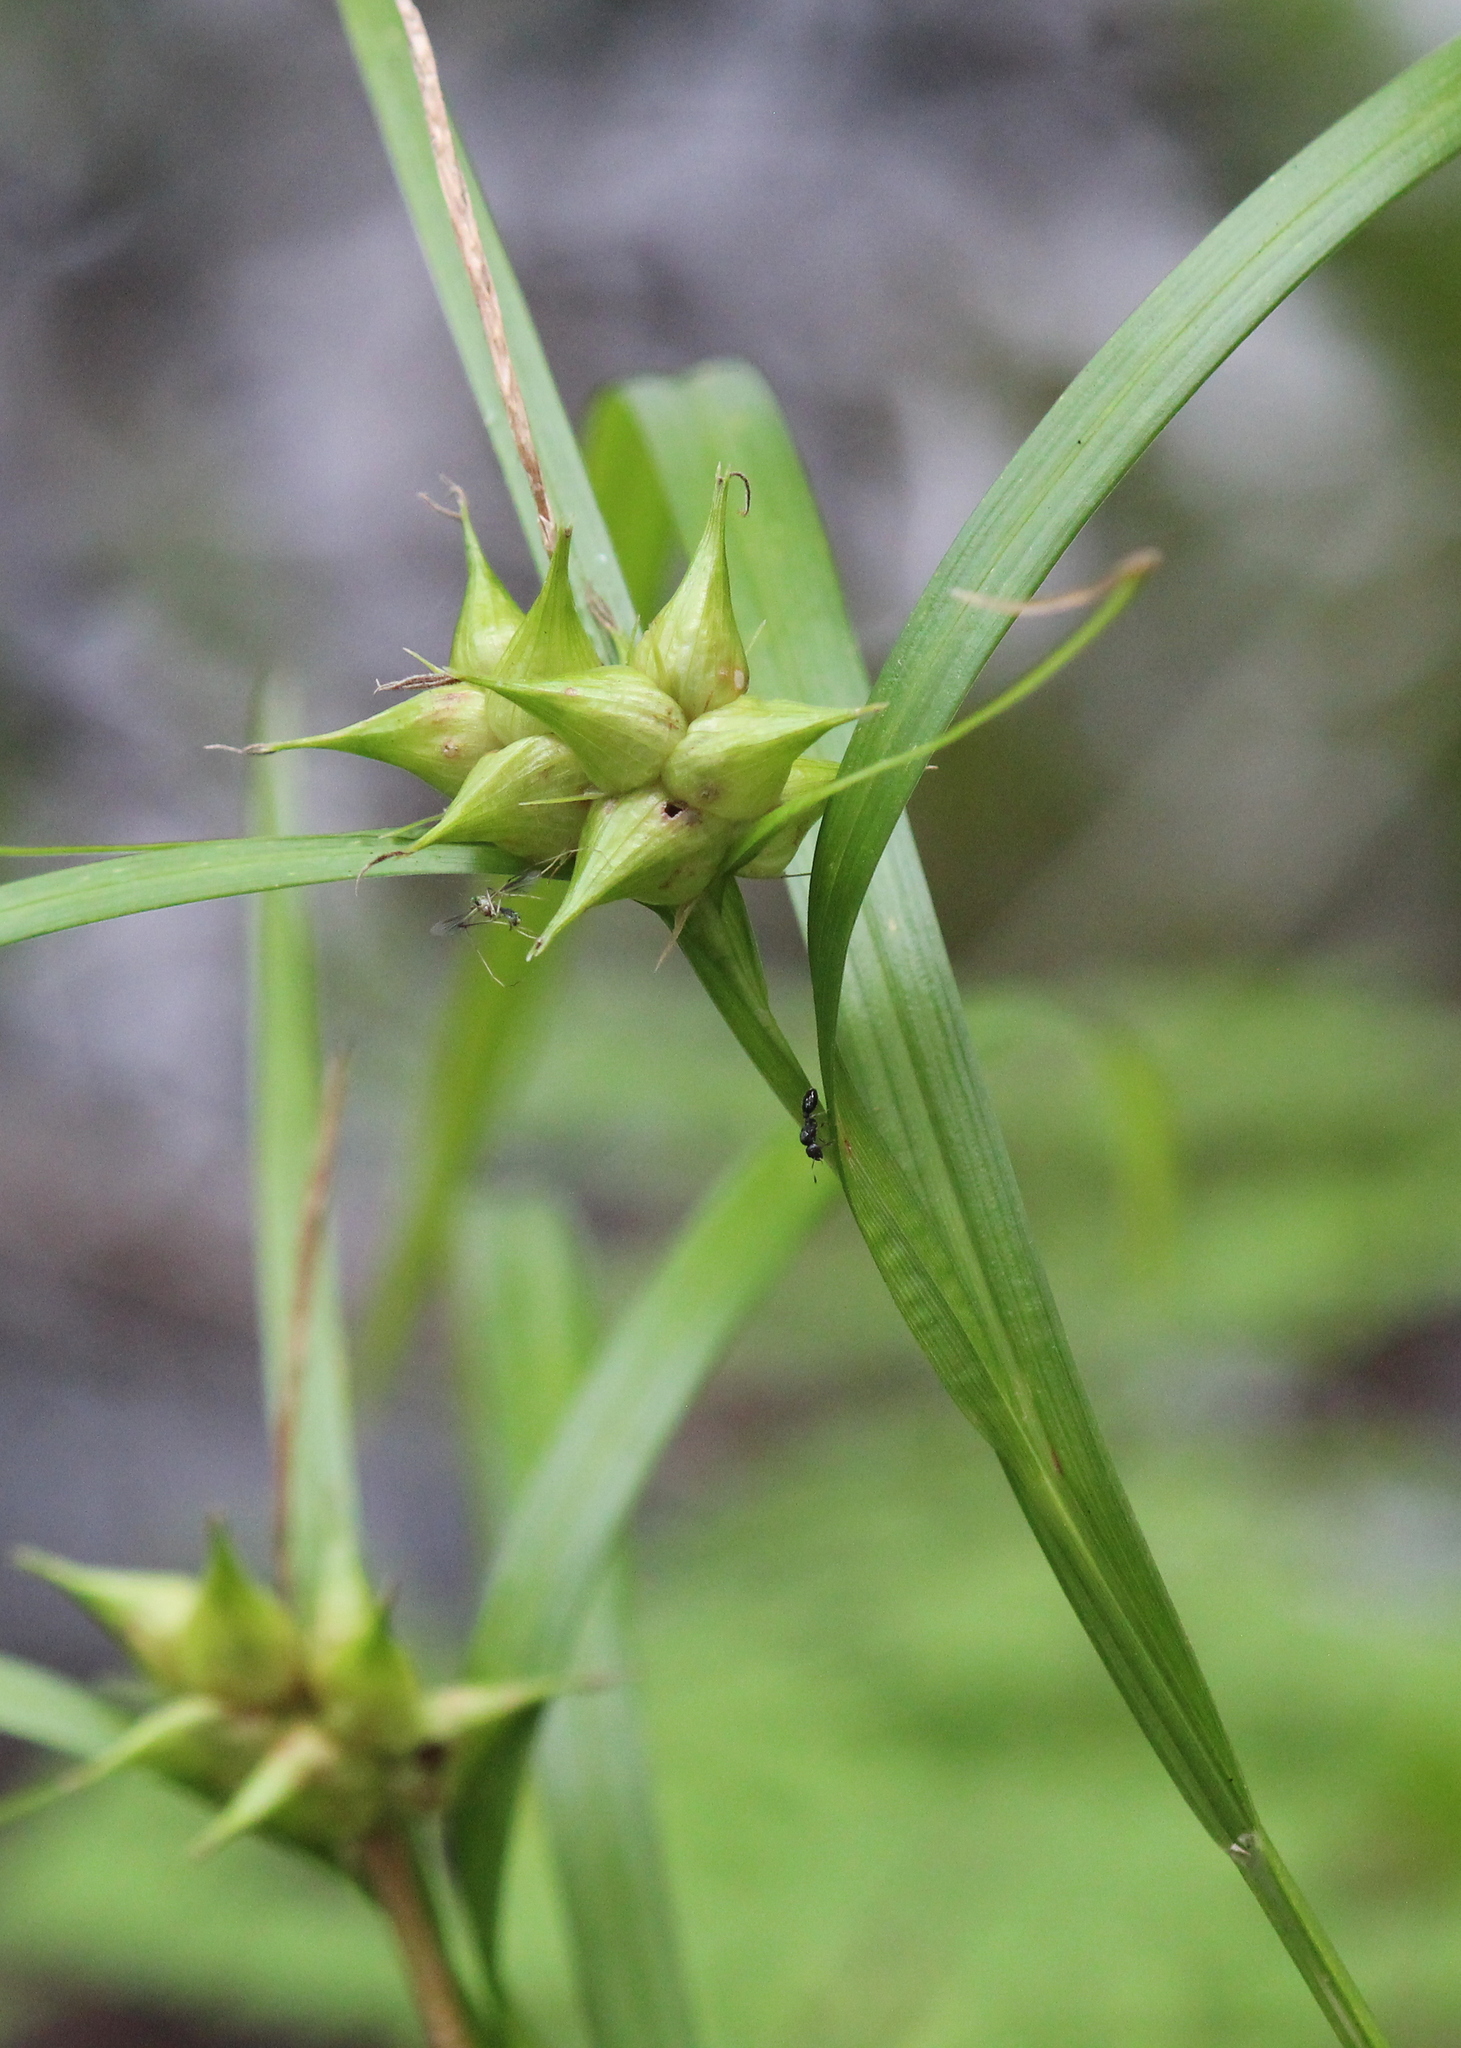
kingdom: Plantae
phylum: Tracheophyta
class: Liliopsida
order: Poales
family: Cyperaceae
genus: Carex
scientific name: Carex intumescens
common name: Greater bladder sedge
